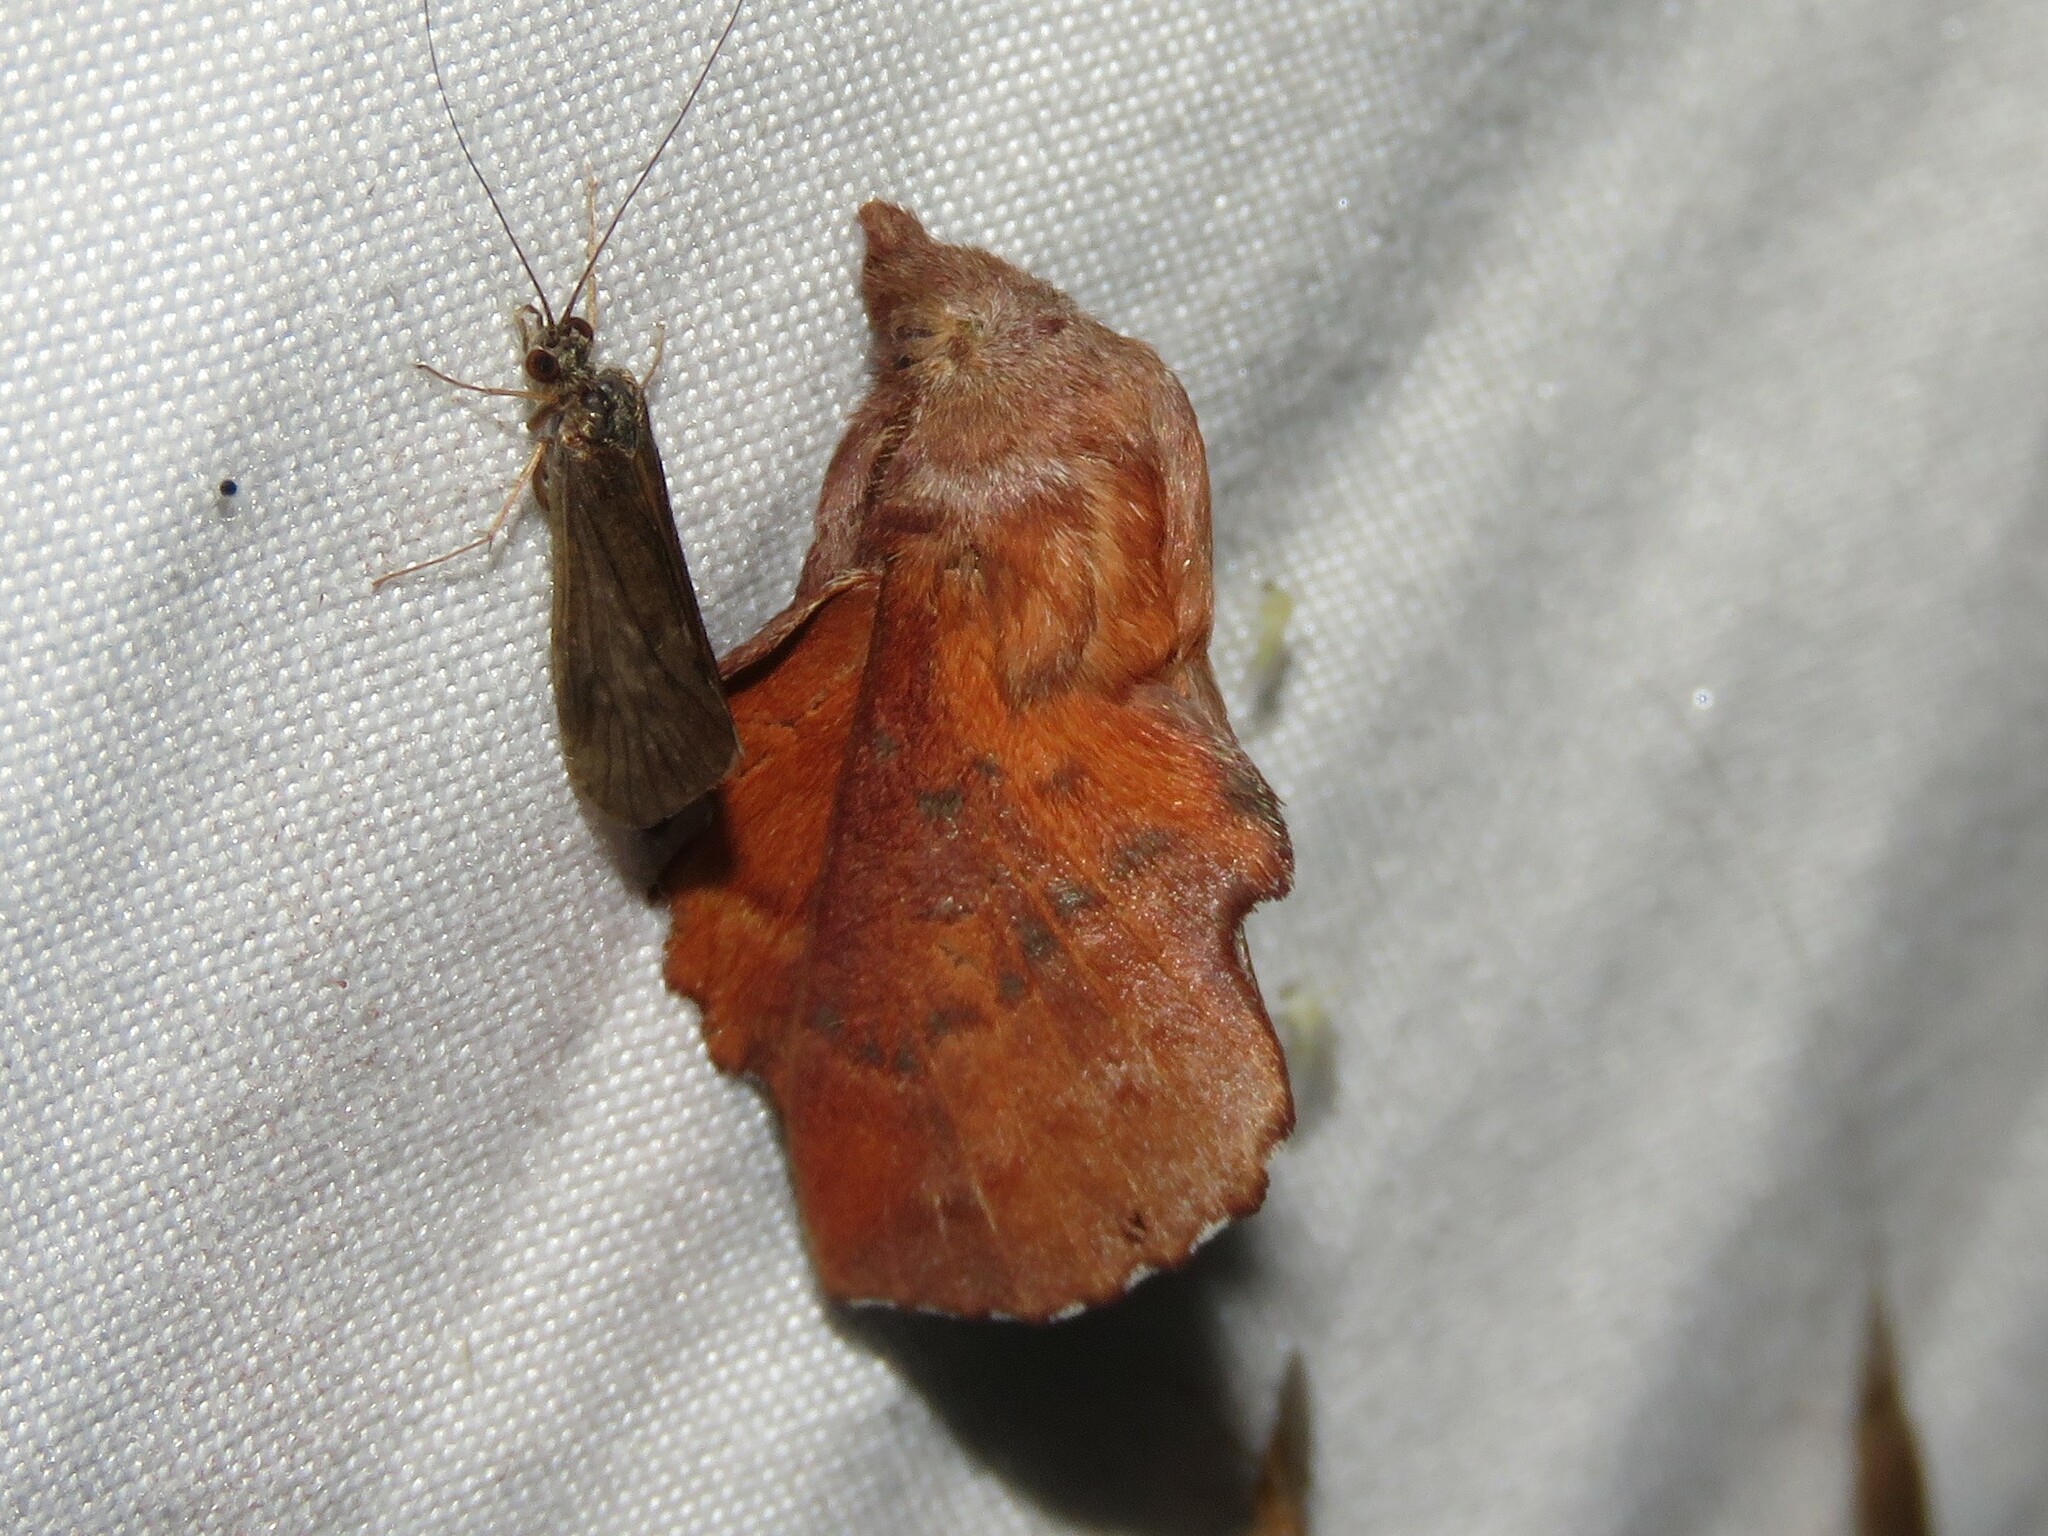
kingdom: Animalia
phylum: Arthropoda
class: Insecta
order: Lepidoptera
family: Lasiocampidae
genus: Phyllodesma
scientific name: Phyllodesma americana
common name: American lappet moth
